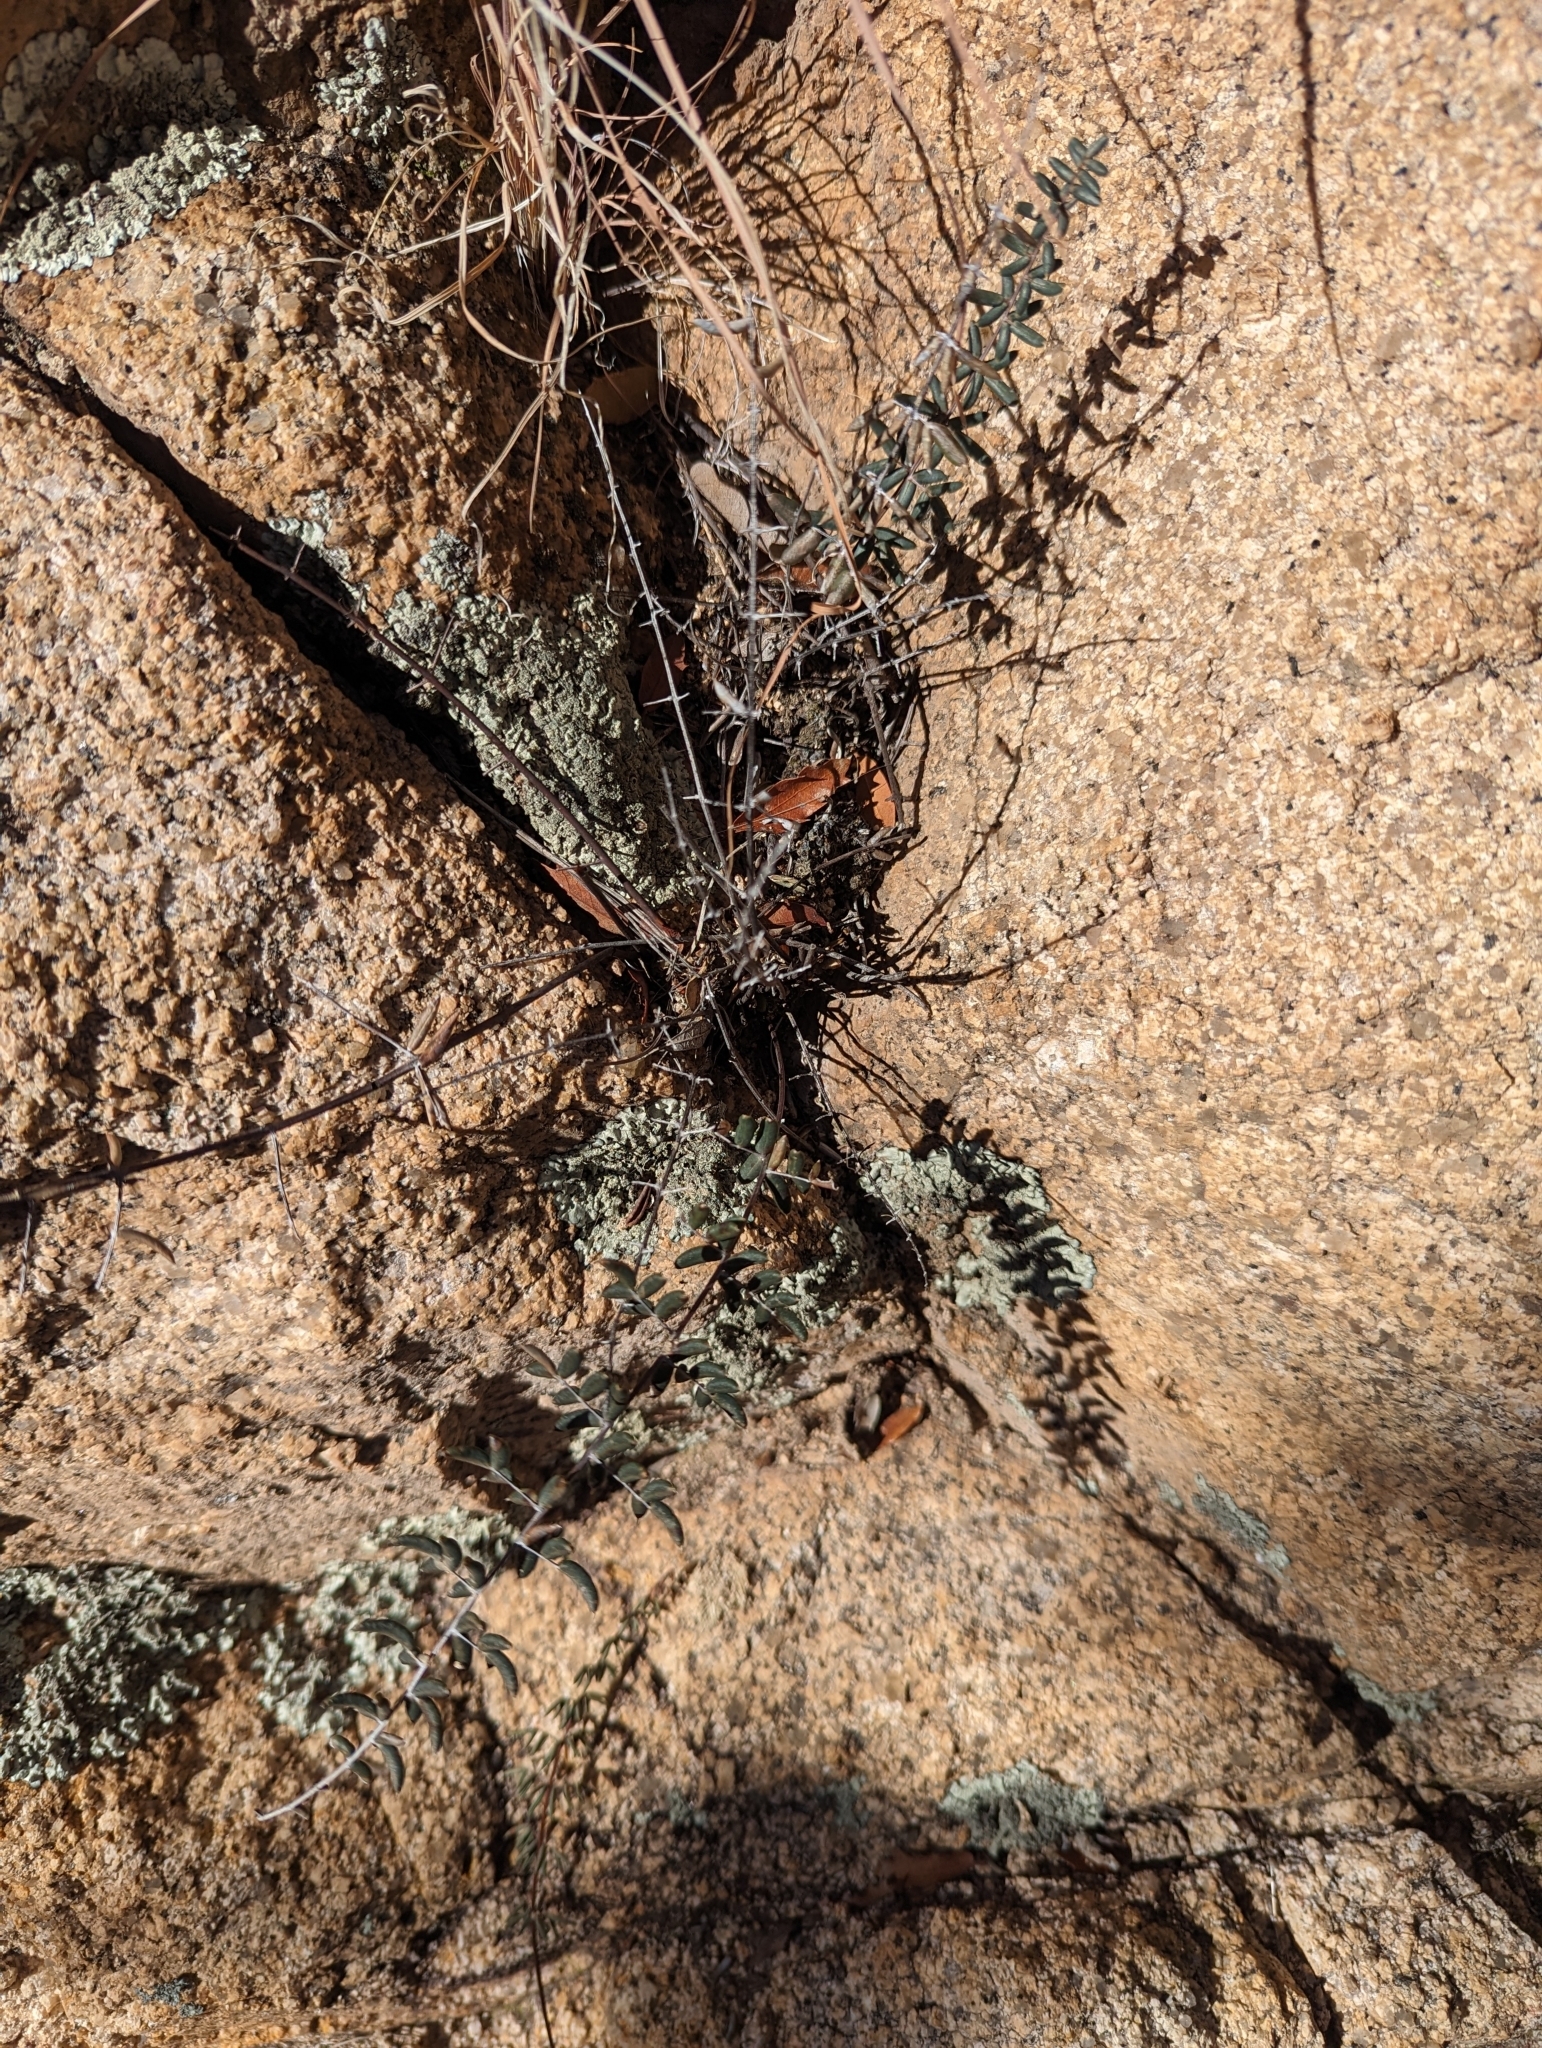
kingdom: Plantae
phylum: Tracheophyta
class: Polypodiopsida
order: Polypodiales
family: Pteridaceae
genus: Pellaea
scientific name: Pellaea wrightiana
